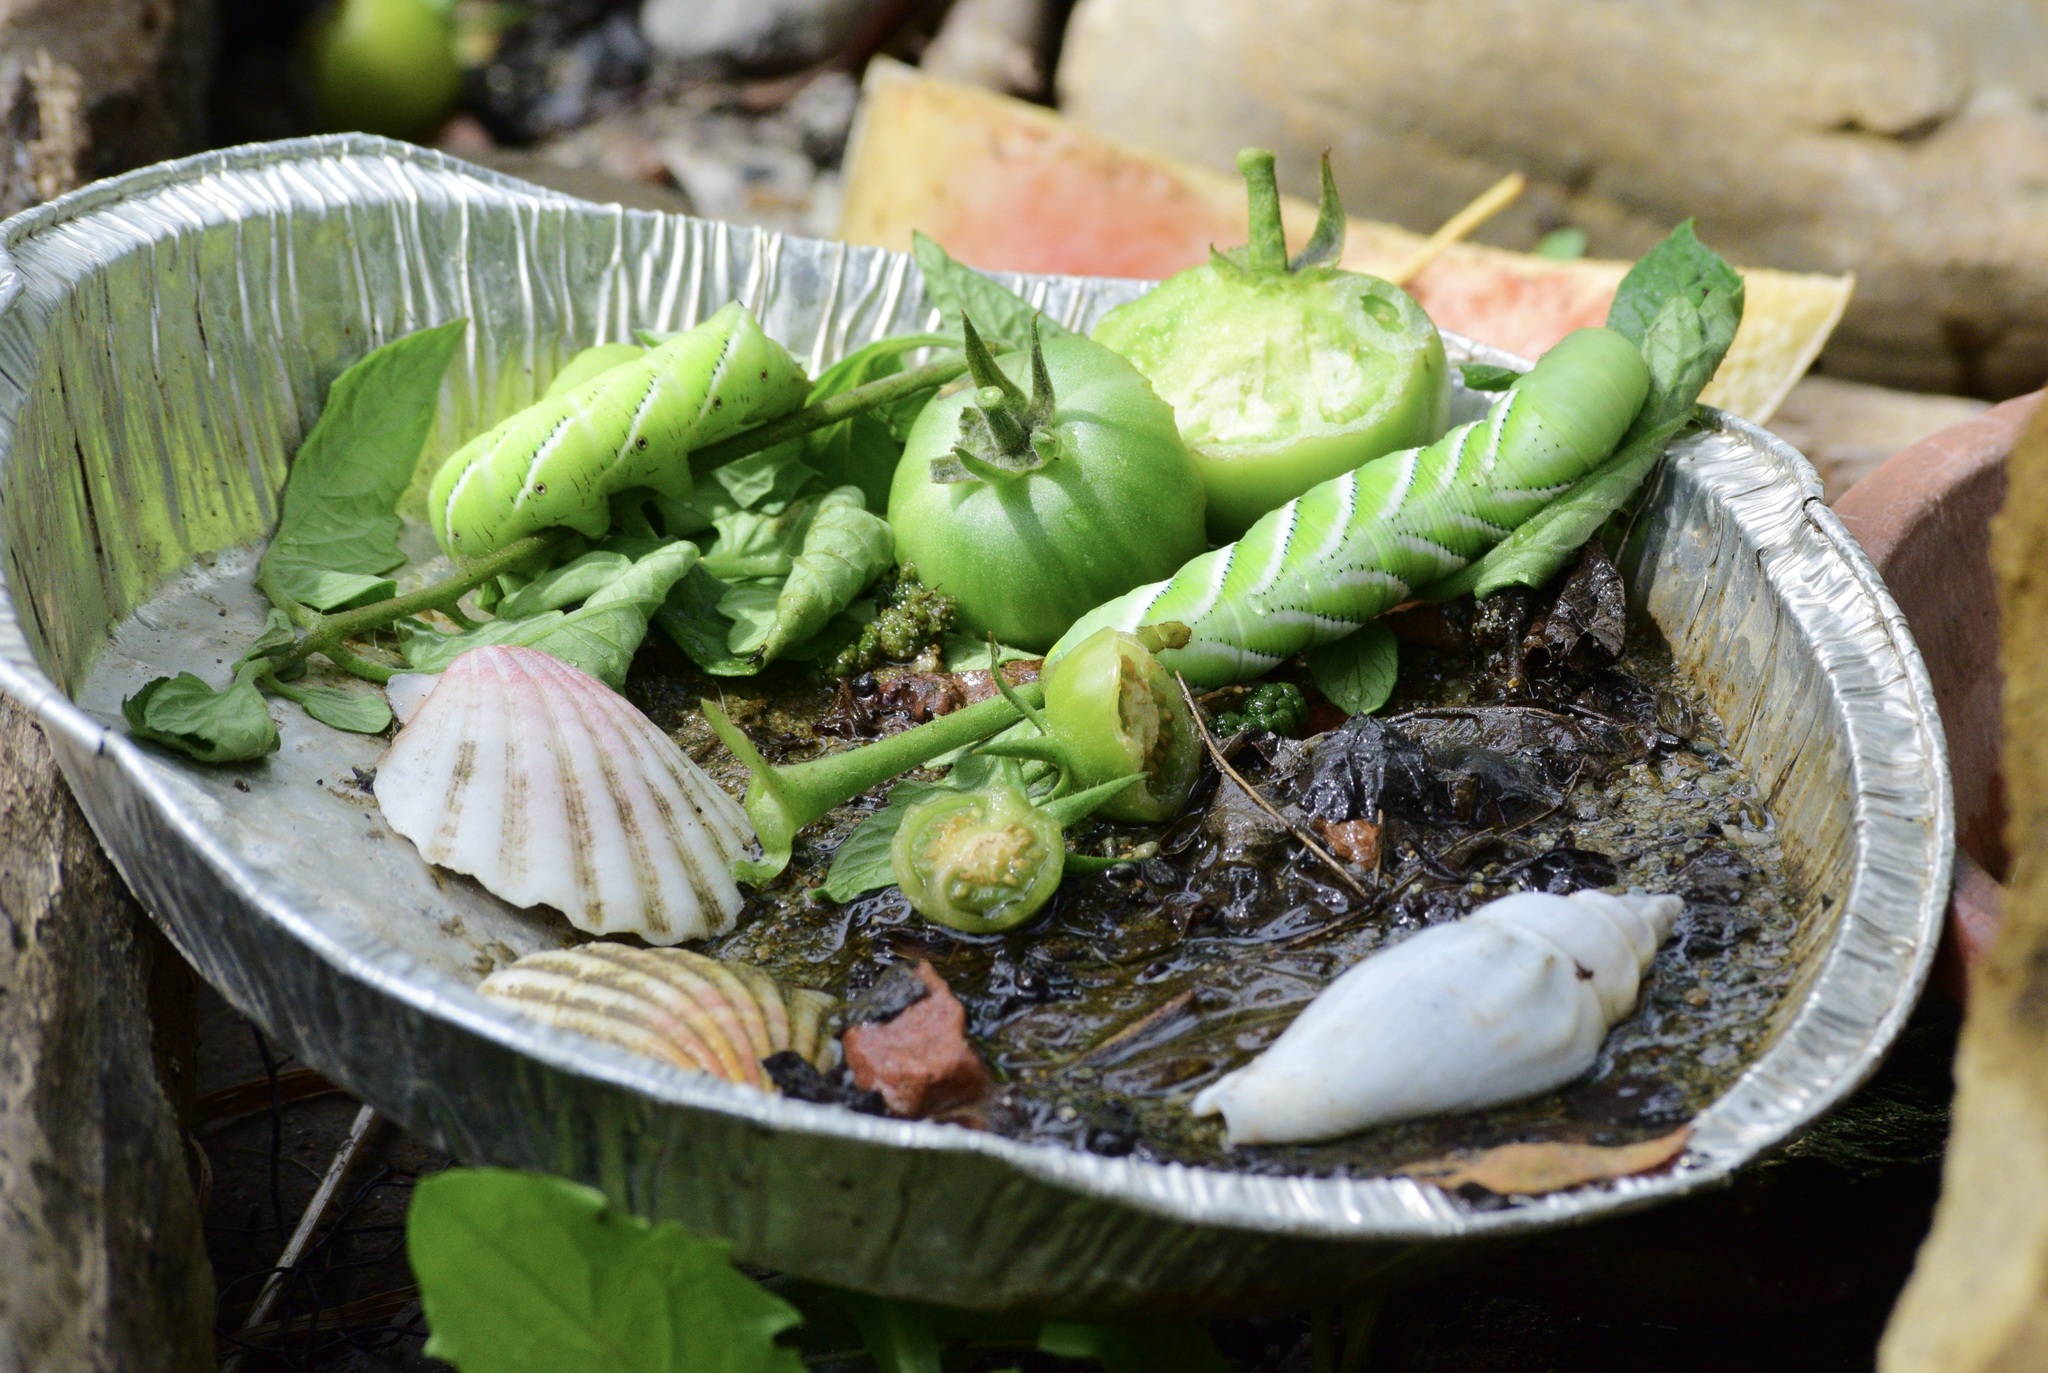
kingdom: Animalia
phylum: Arthropoda
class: Insecta
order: Lepidoptera
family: Sphingidae
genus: Manduca
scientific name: Manduca sexta
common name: Carolina sphinx
